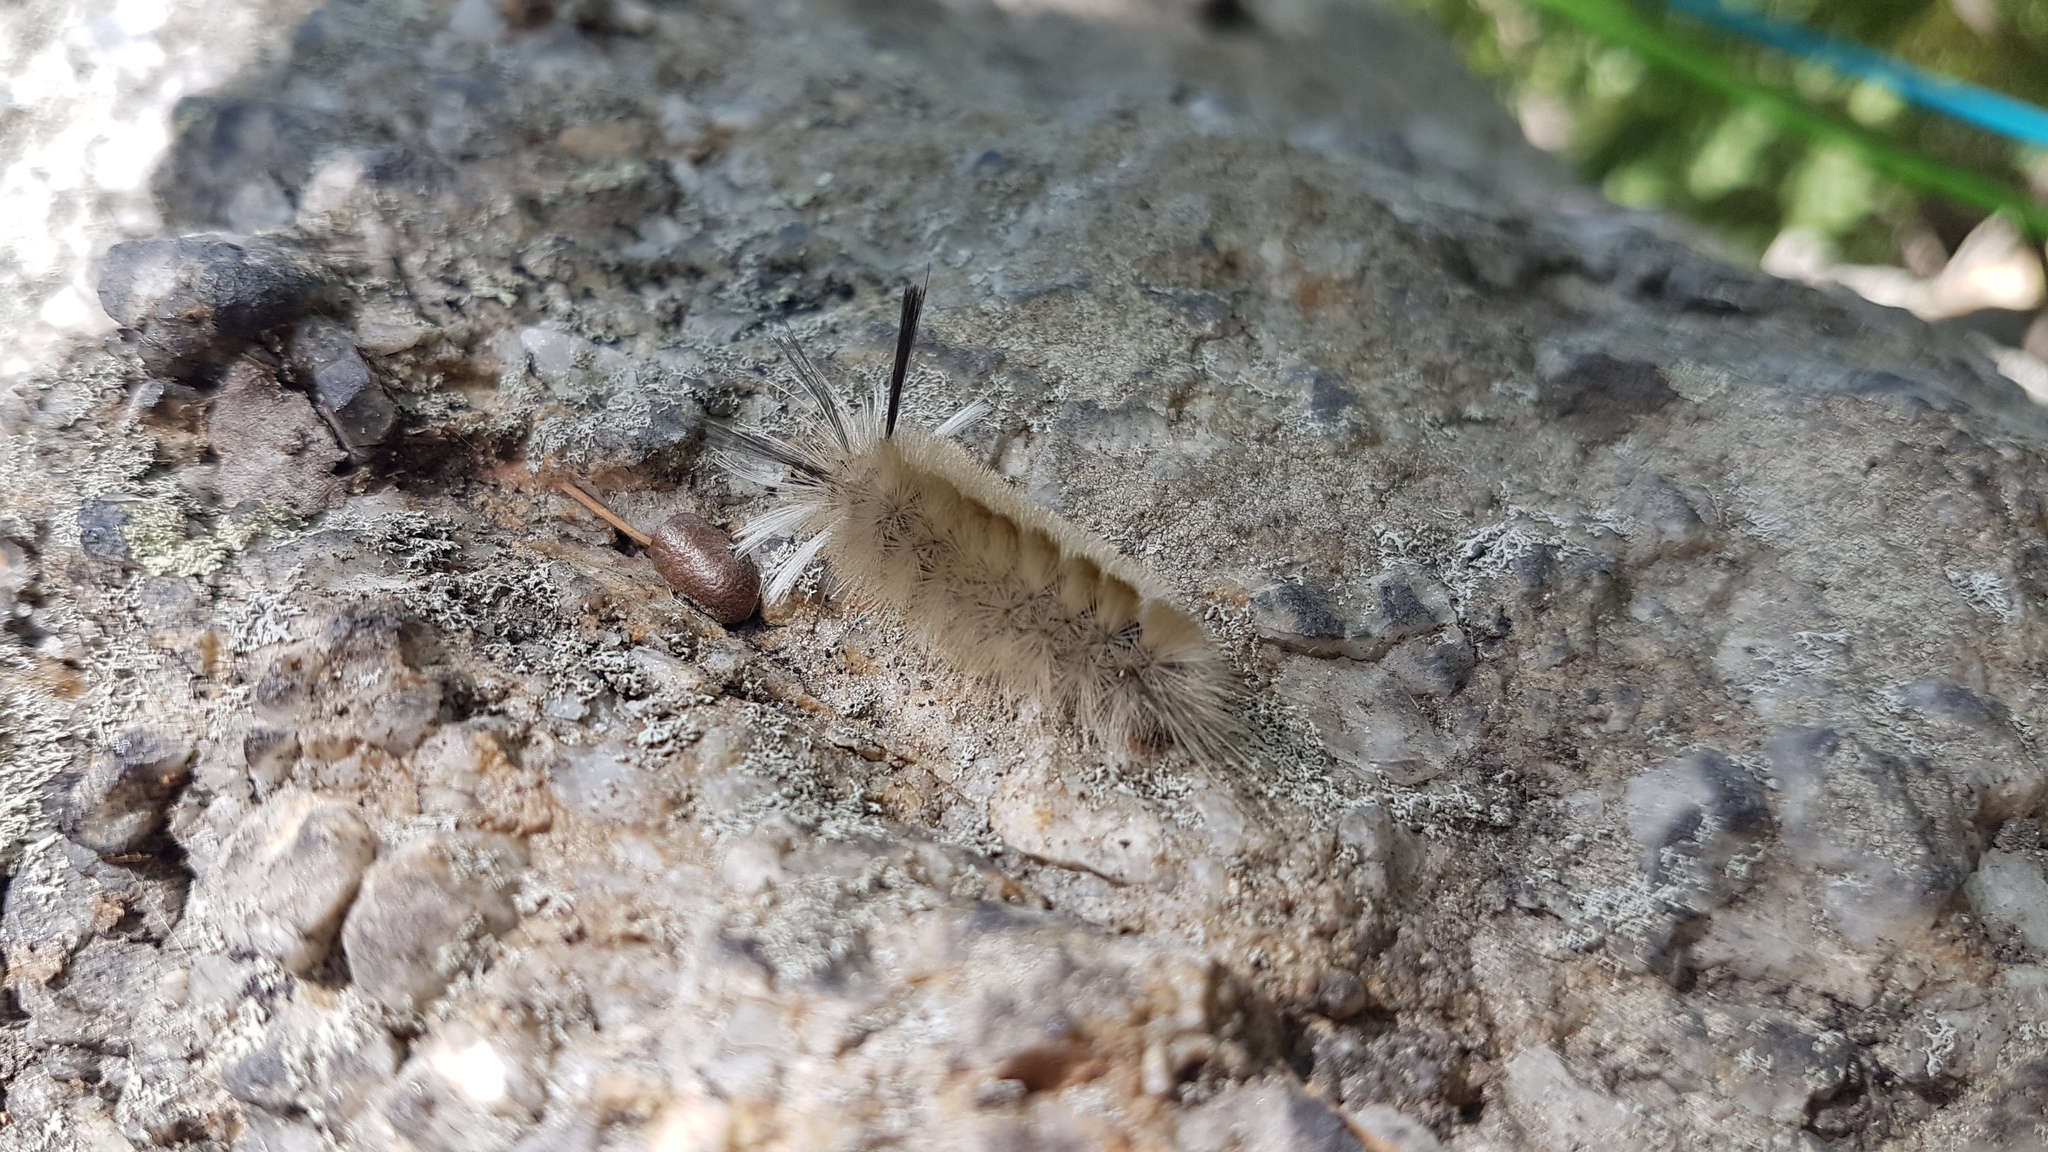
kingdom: Animalia
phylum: Arthropoda
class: Insecta
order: Lepidoptera
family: Erebidae
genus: Halysidota
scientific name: Halysidota tessellaris
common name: Banded tussock moth
